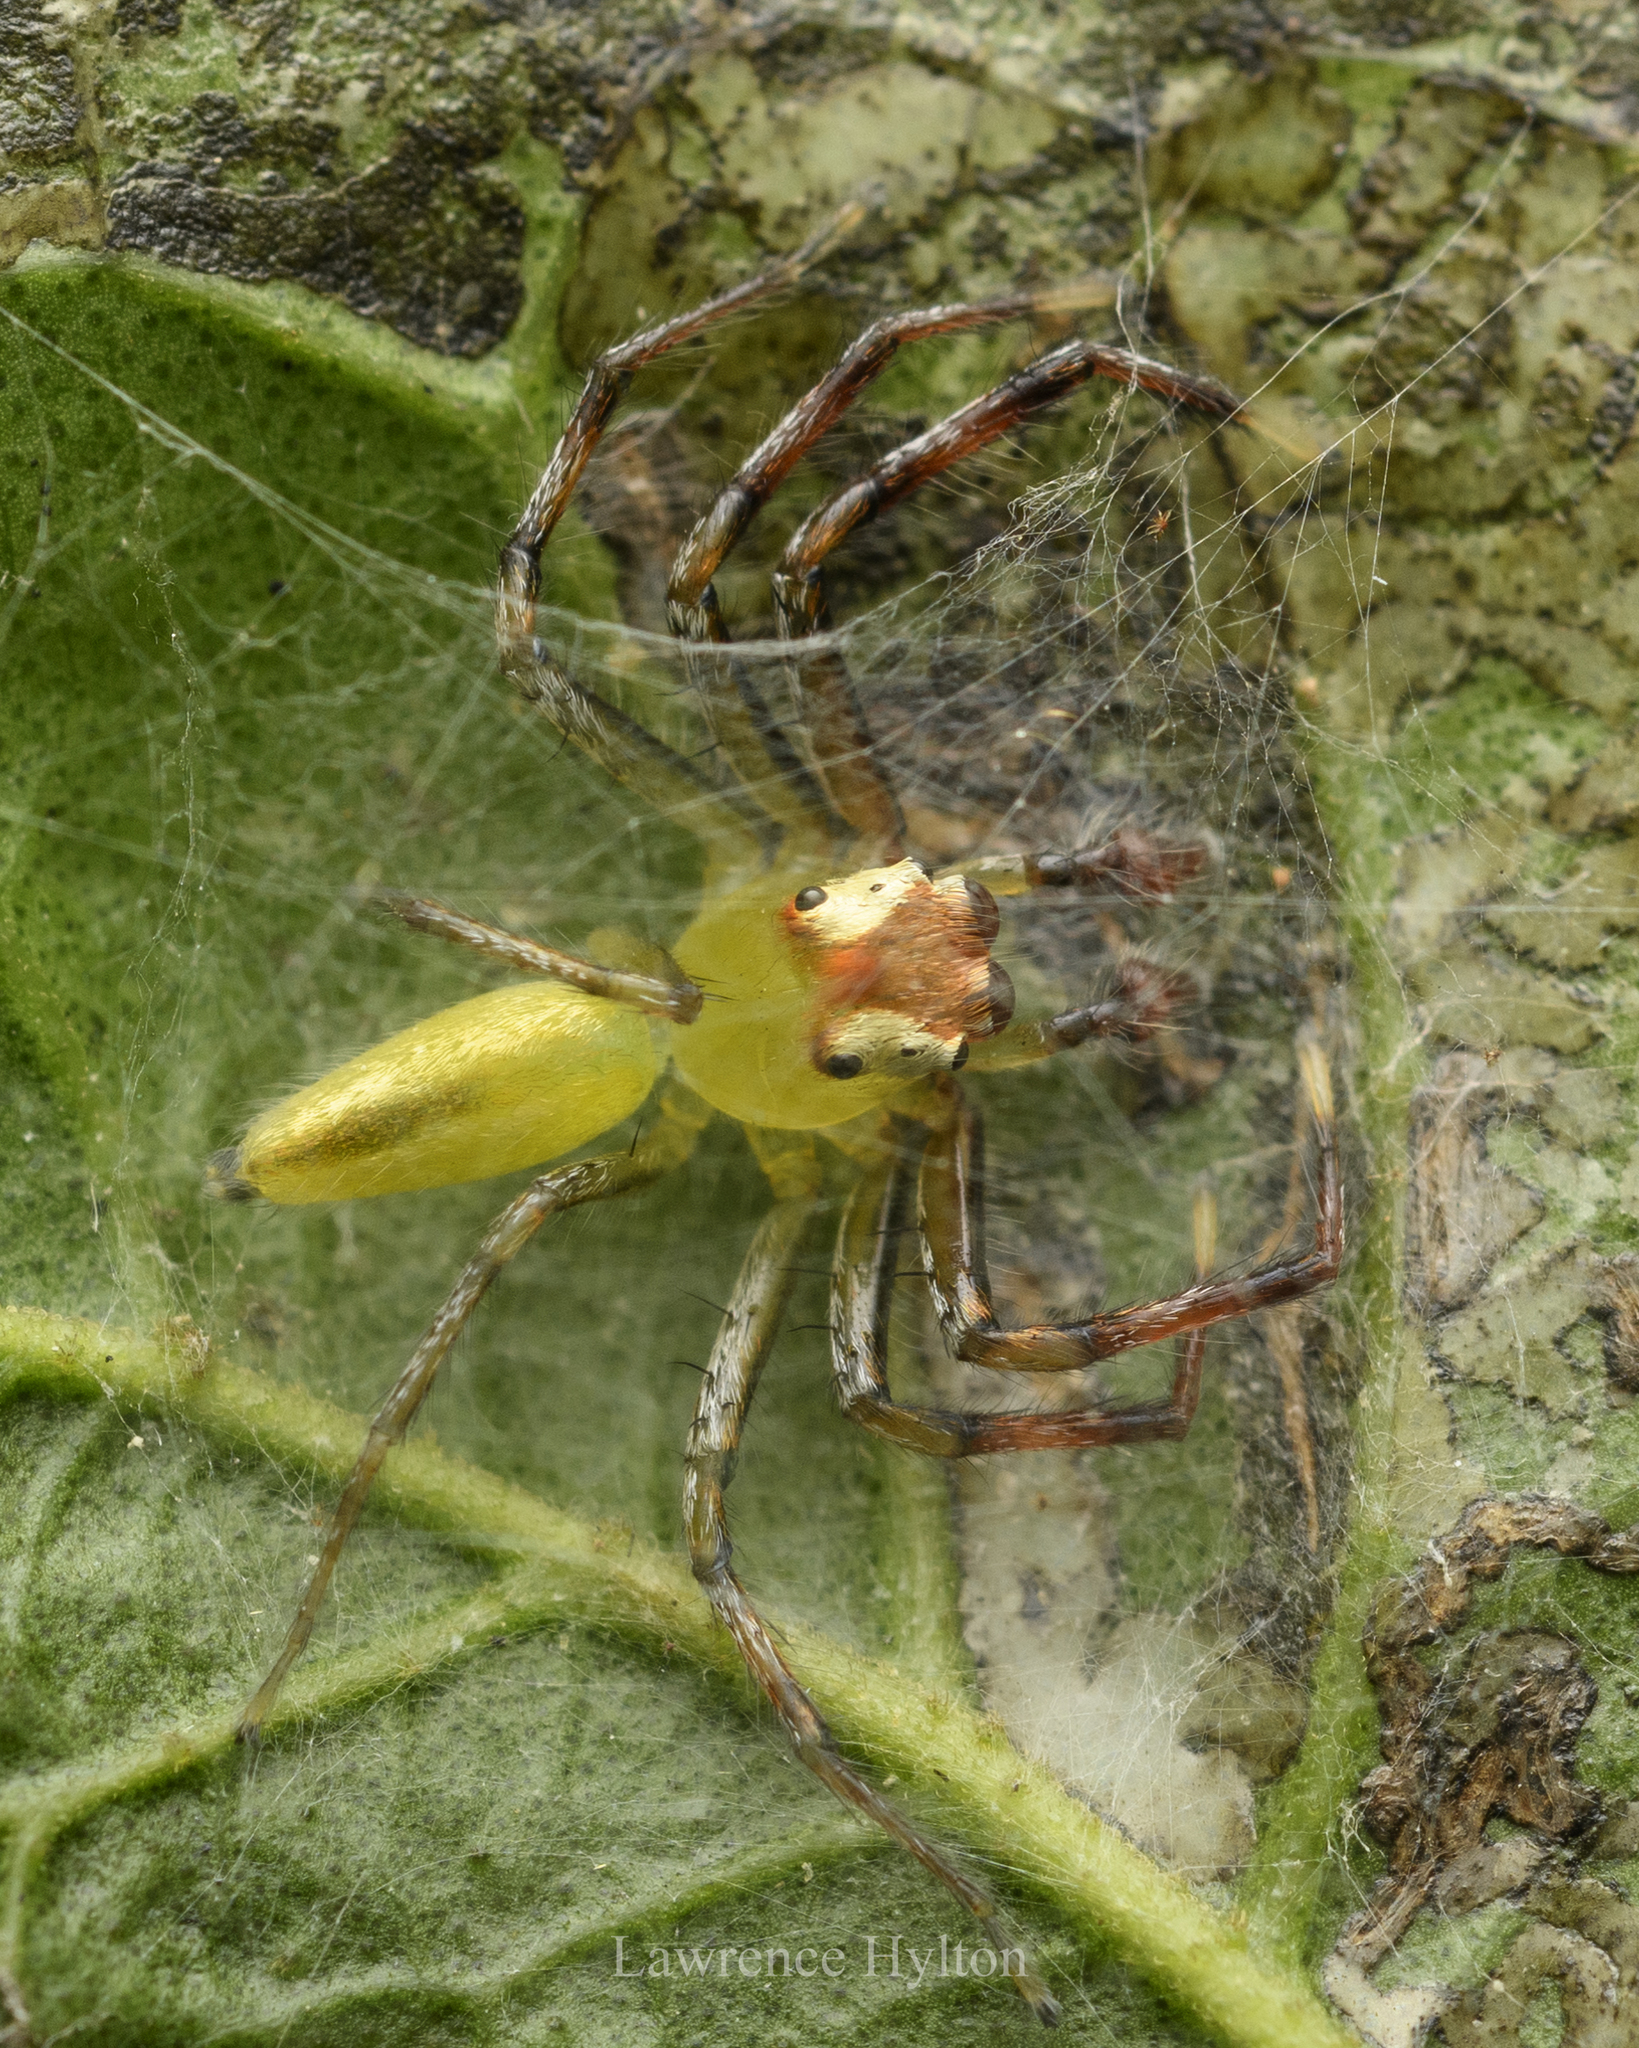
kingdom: Animalia
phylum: Arthropoda
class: Arachnida
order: Araneae
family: Salticidae
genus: Epeus
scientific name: Epeus glorius
